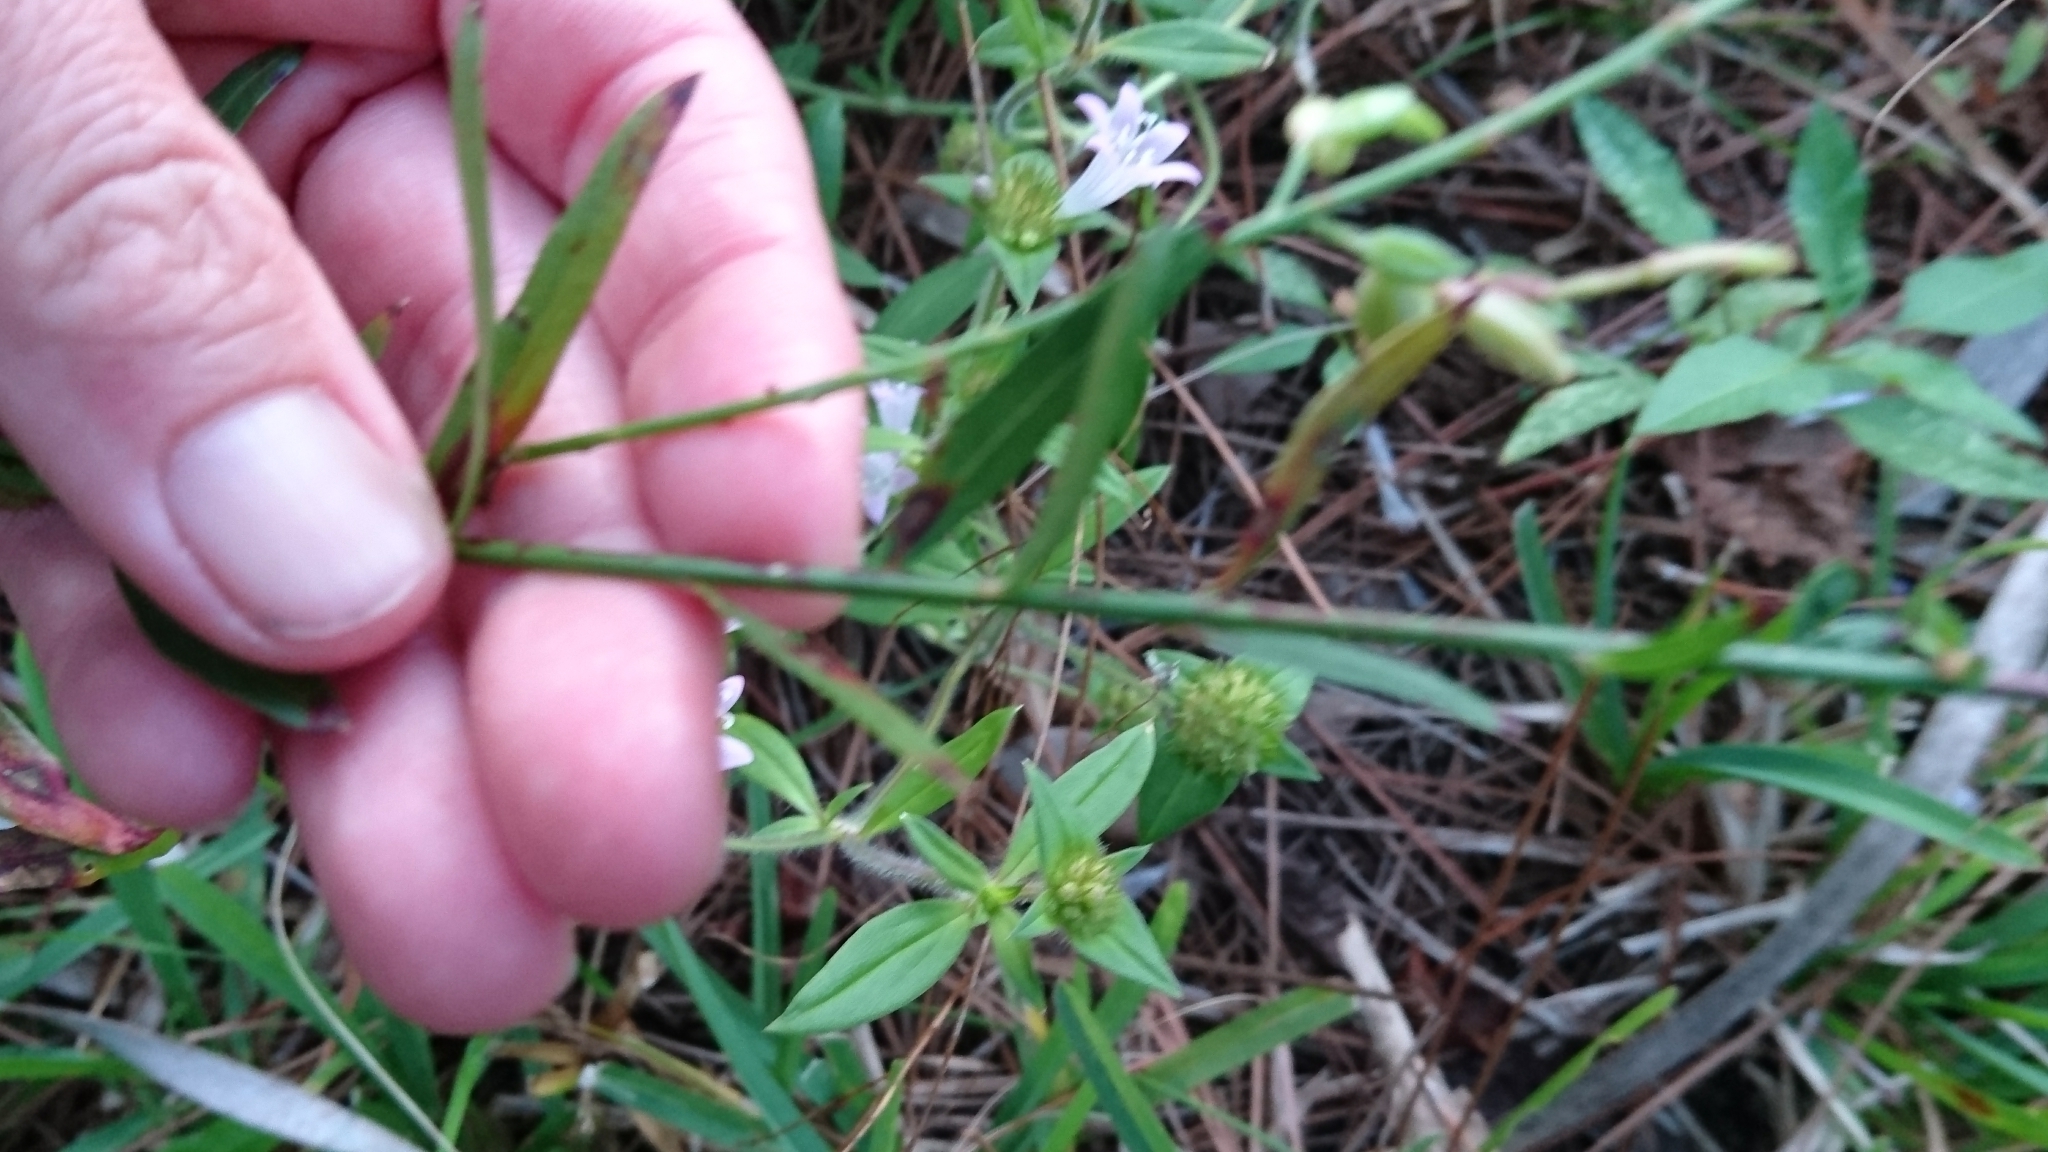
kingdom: Plantae
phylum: Tracheophyta
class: Magnoliopsida
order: Myrtales
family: Onagraceae
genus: Oenothera
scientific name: Oenothera simulans
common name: Southern beeblossom
